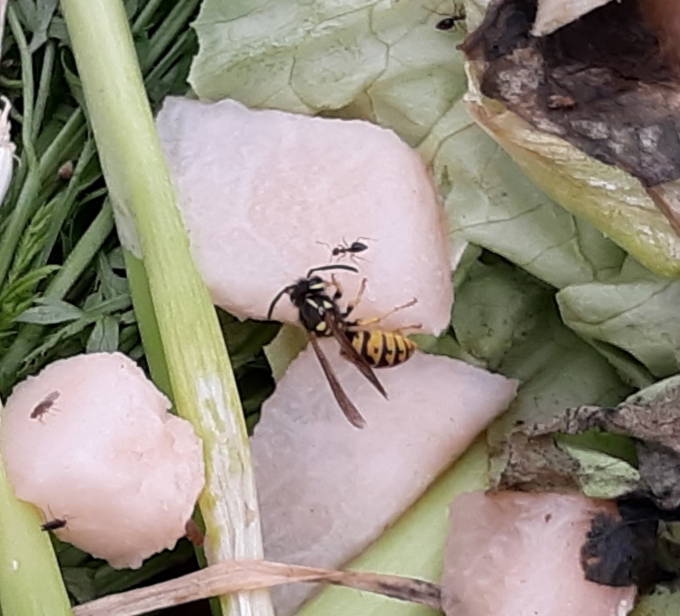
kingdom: Animalia
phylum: Arthropoda
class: Insecta
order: Hymenoptera
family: Vespidae
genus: Vespula
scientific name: Vespula germanica
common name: German wasp
